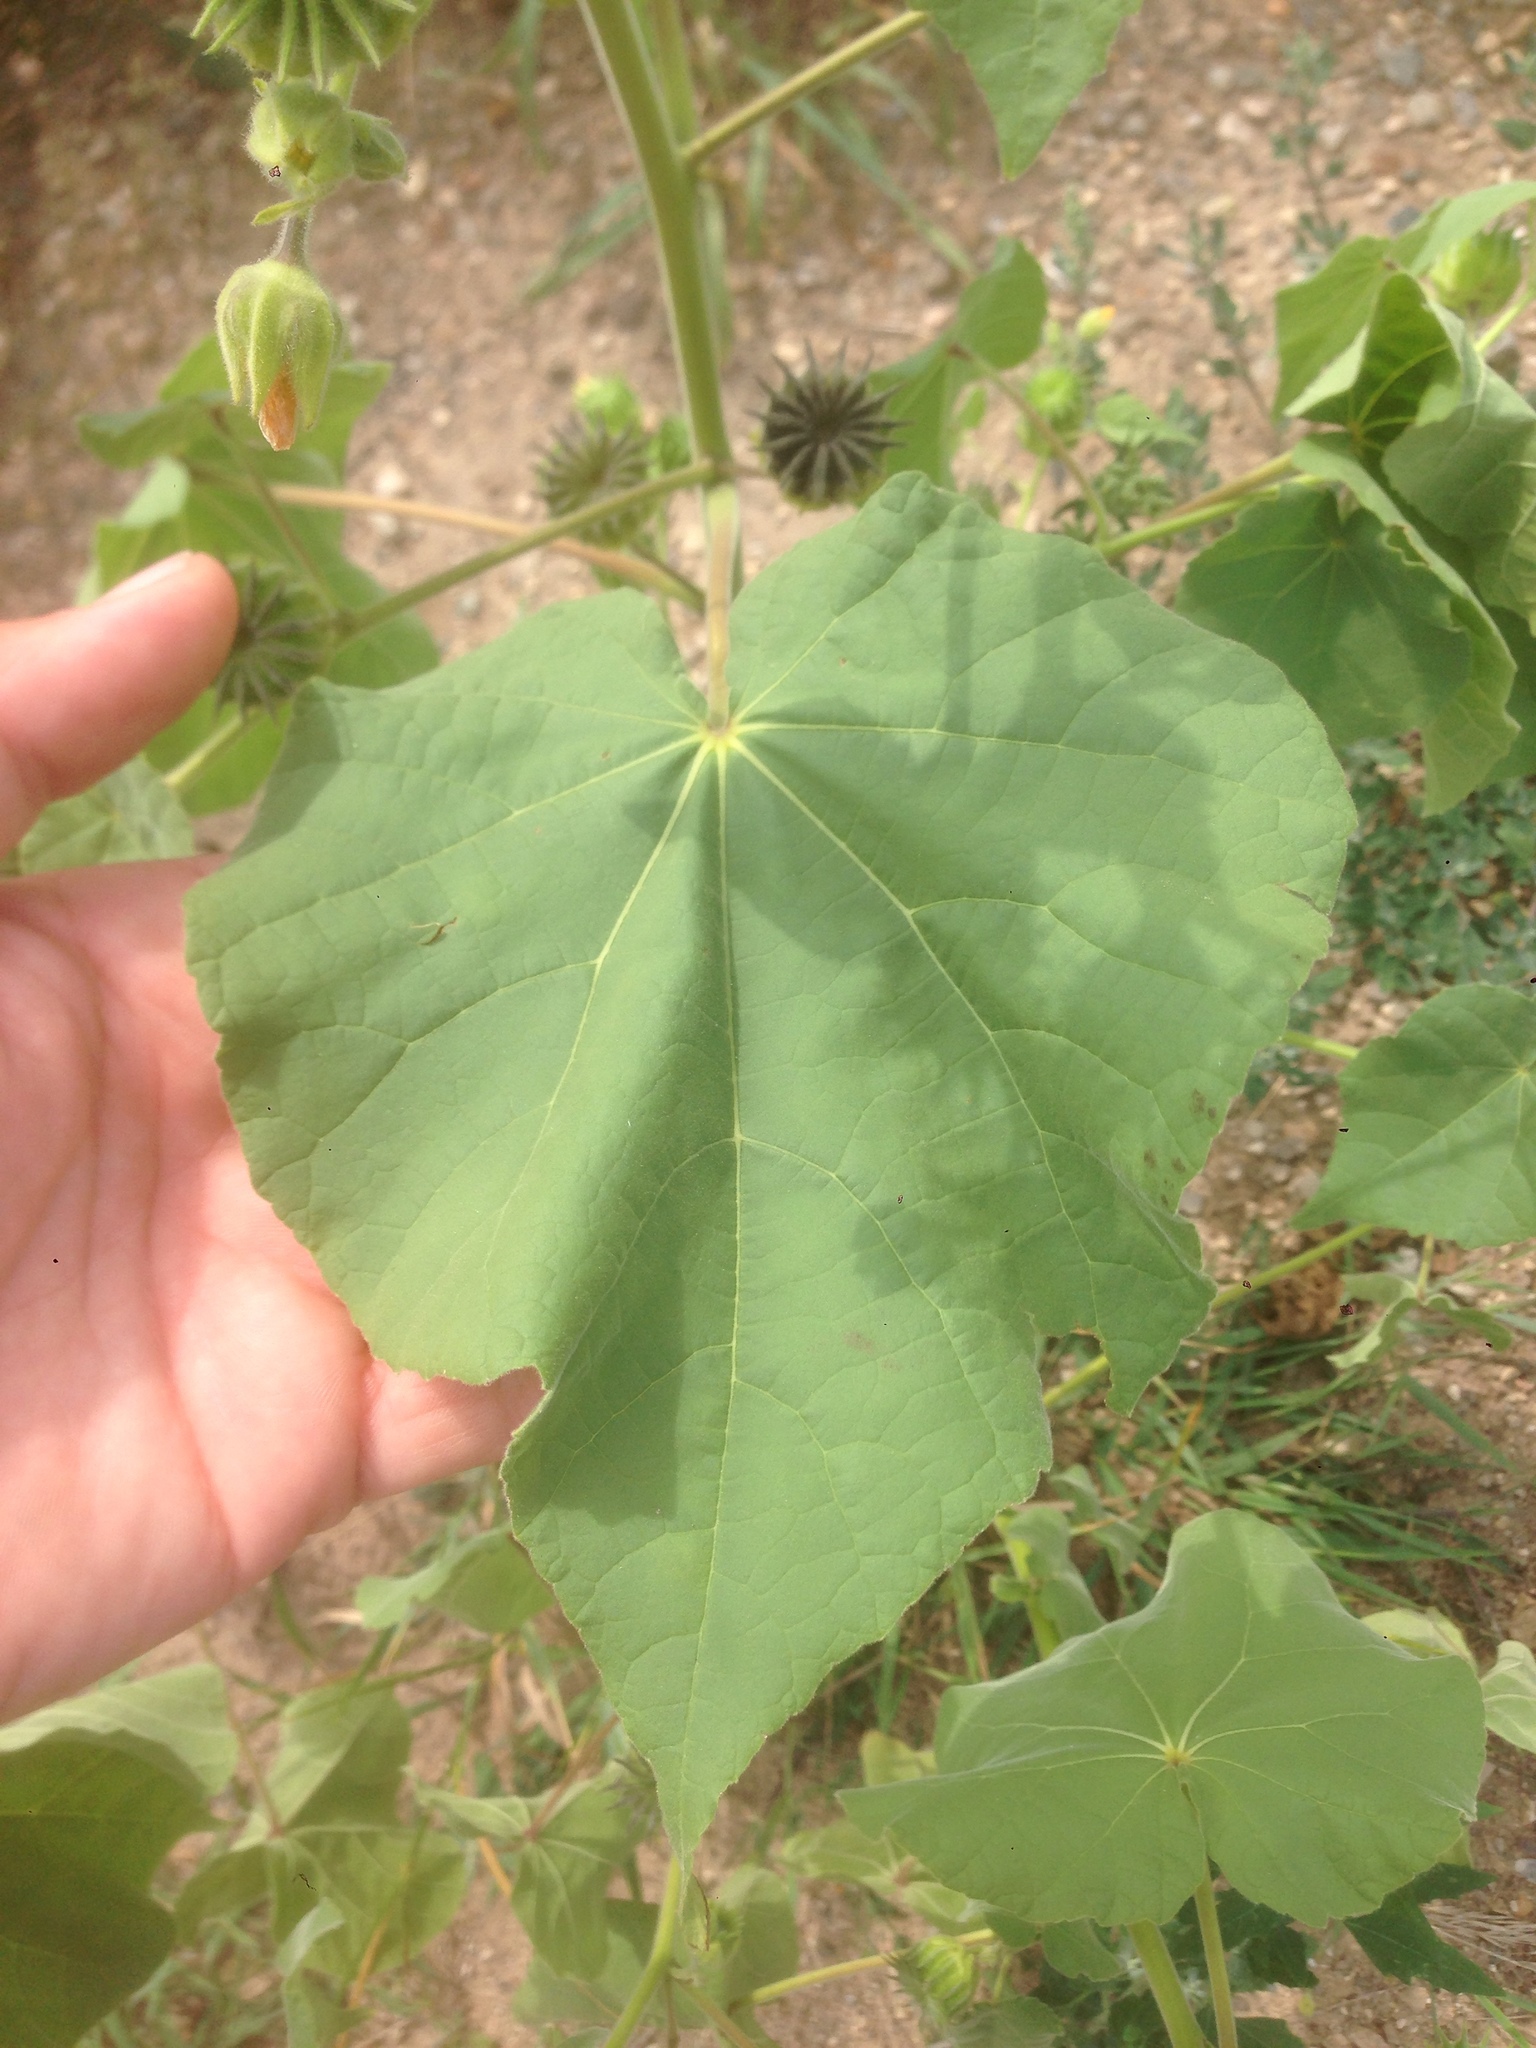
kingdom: Plantae
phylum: Tracheophyta
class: Magnoliopsida
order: Malvales
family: Malvaceae
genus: Abutilon
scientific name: Abutilon theophrasti
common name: Velvetleaf
